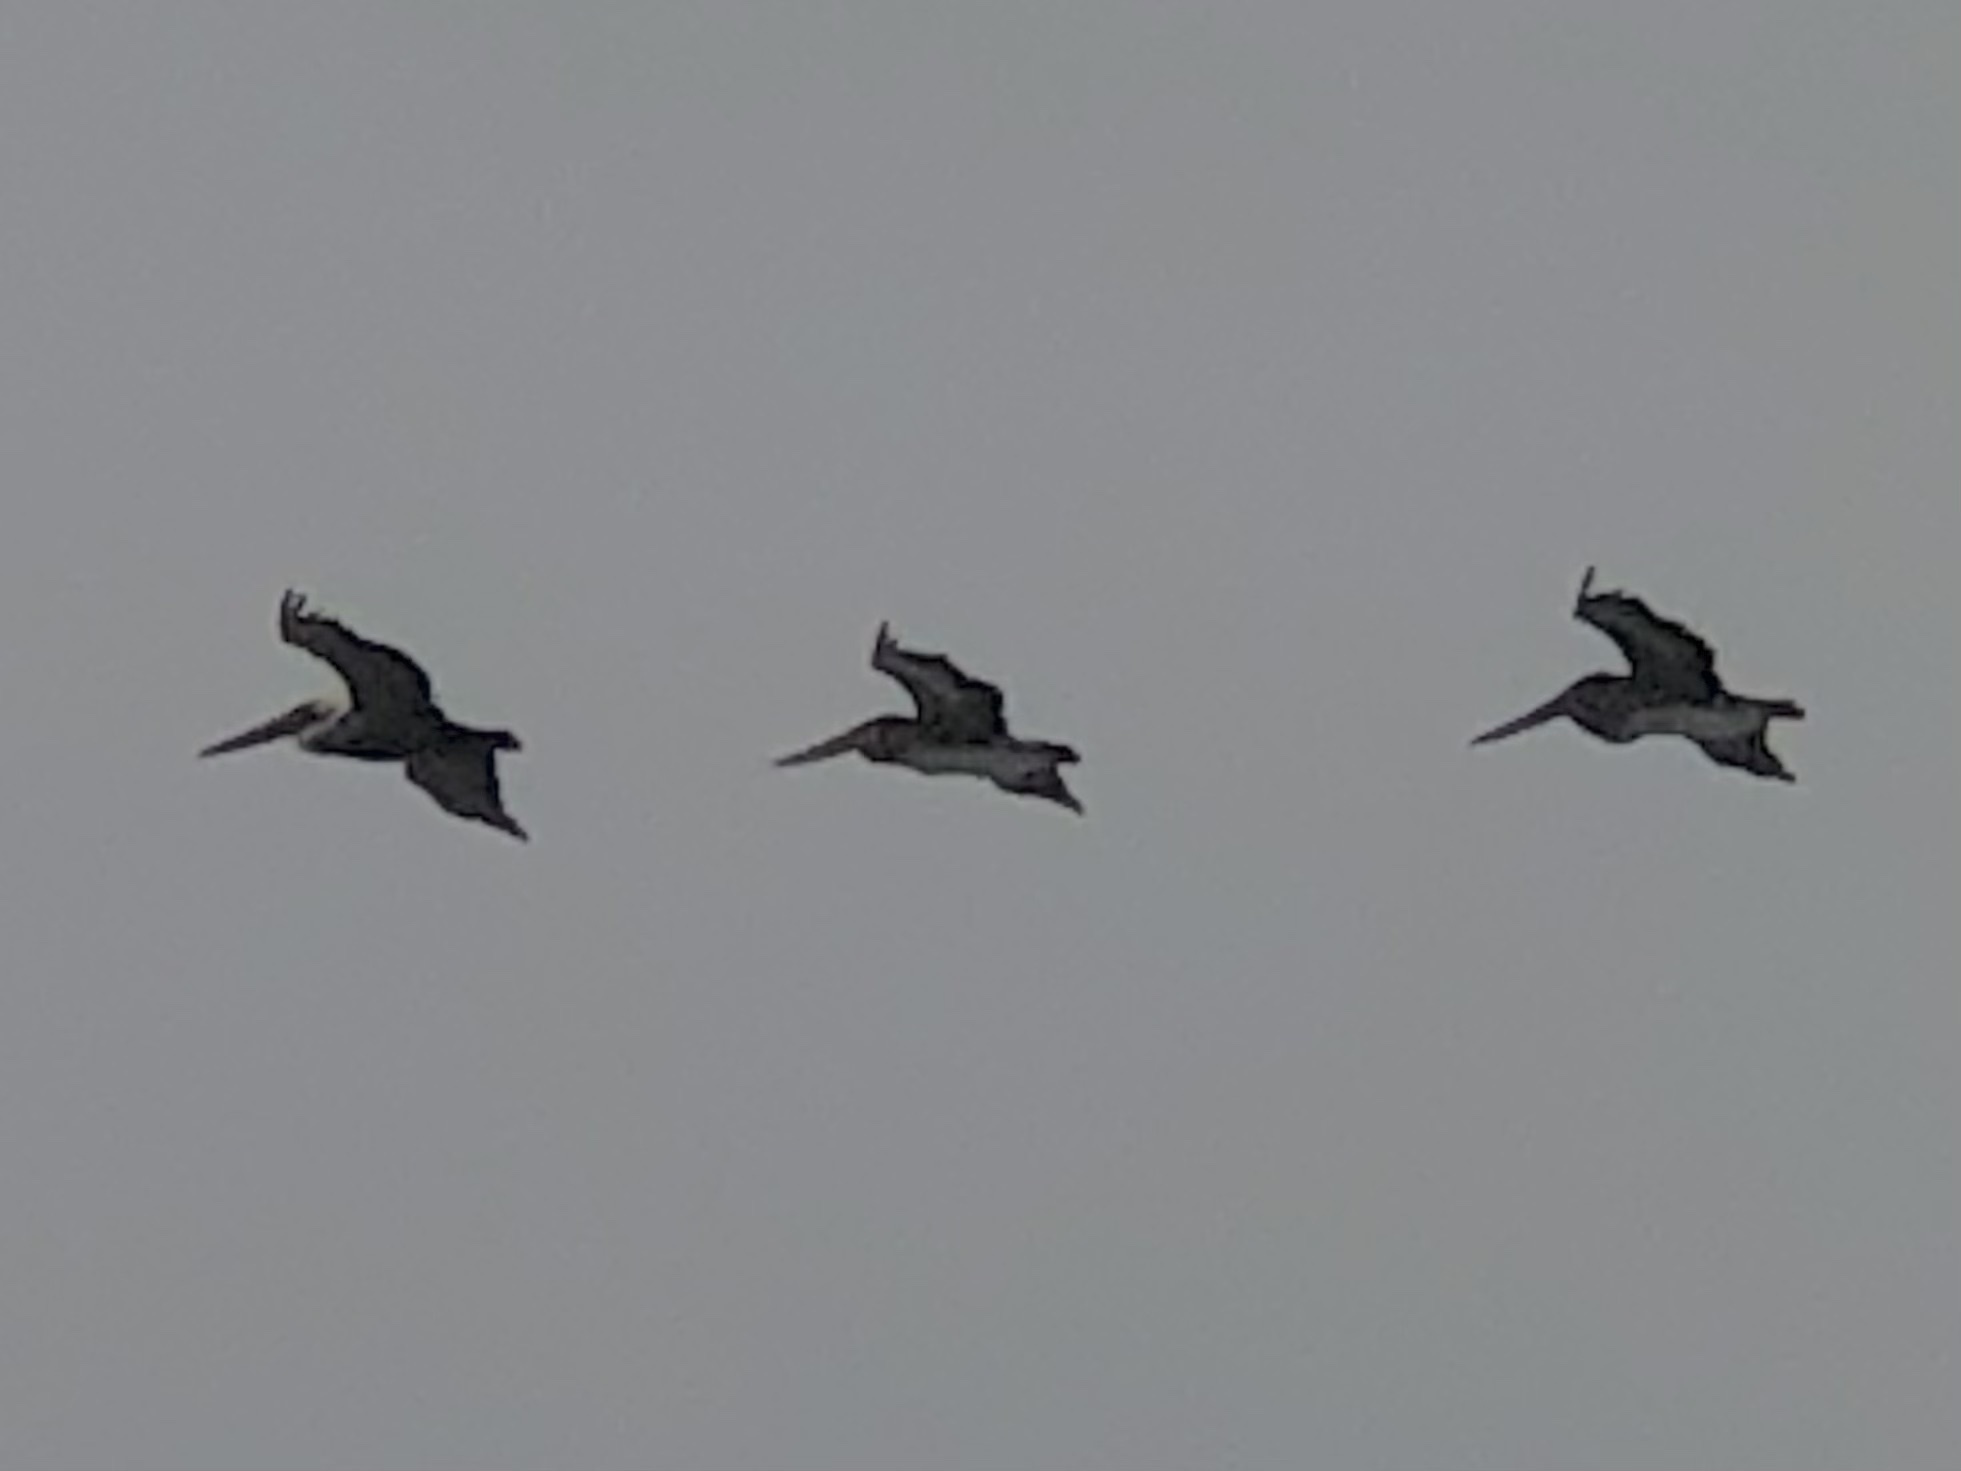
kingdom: Animalia
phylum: Chordata
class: Aves
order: Pelecaniformes
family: Pelecanidae
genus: Pelecanus
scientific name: Pelecanus occidentalis
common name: Brown pelican
